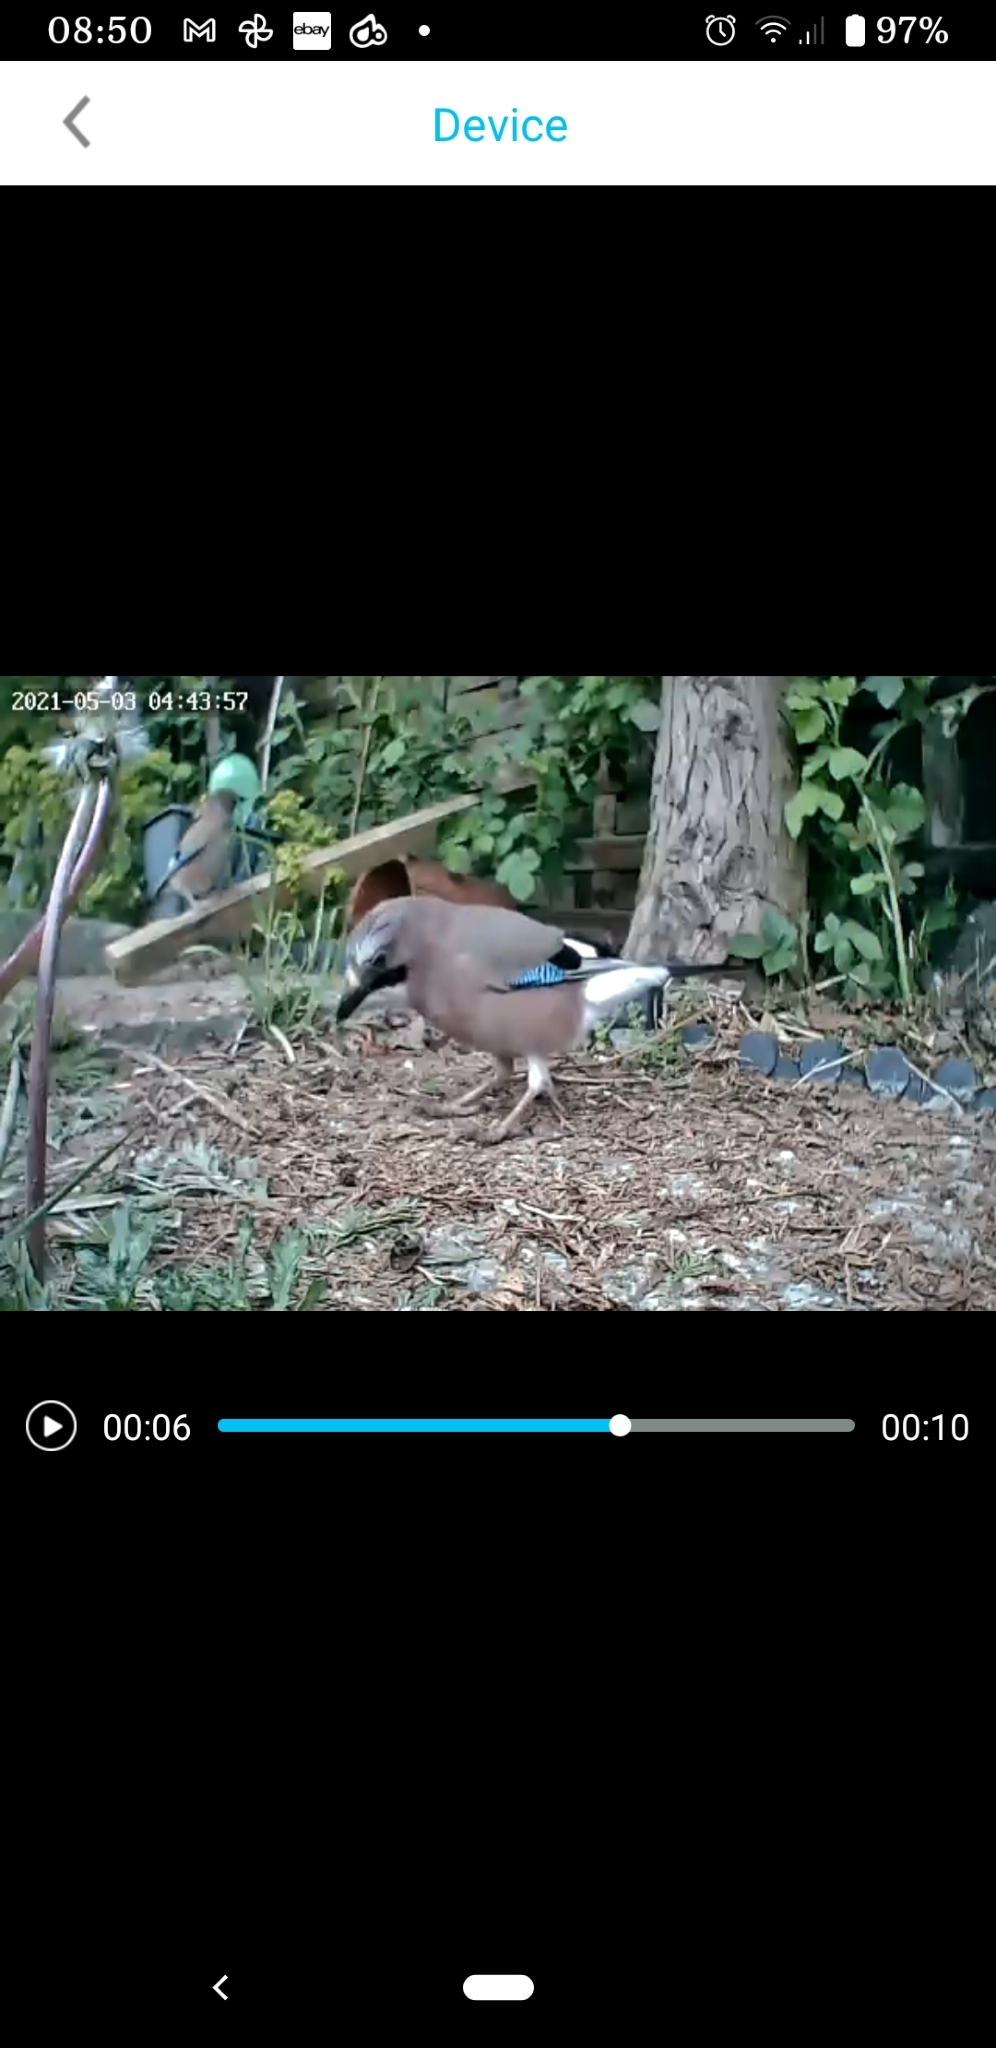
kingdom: Animalia
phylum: Chordata
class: Aves
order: Passeriformes
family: Corvidae
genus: Garrulus
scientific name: Garrulus glandarius
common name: Eurasian jay
